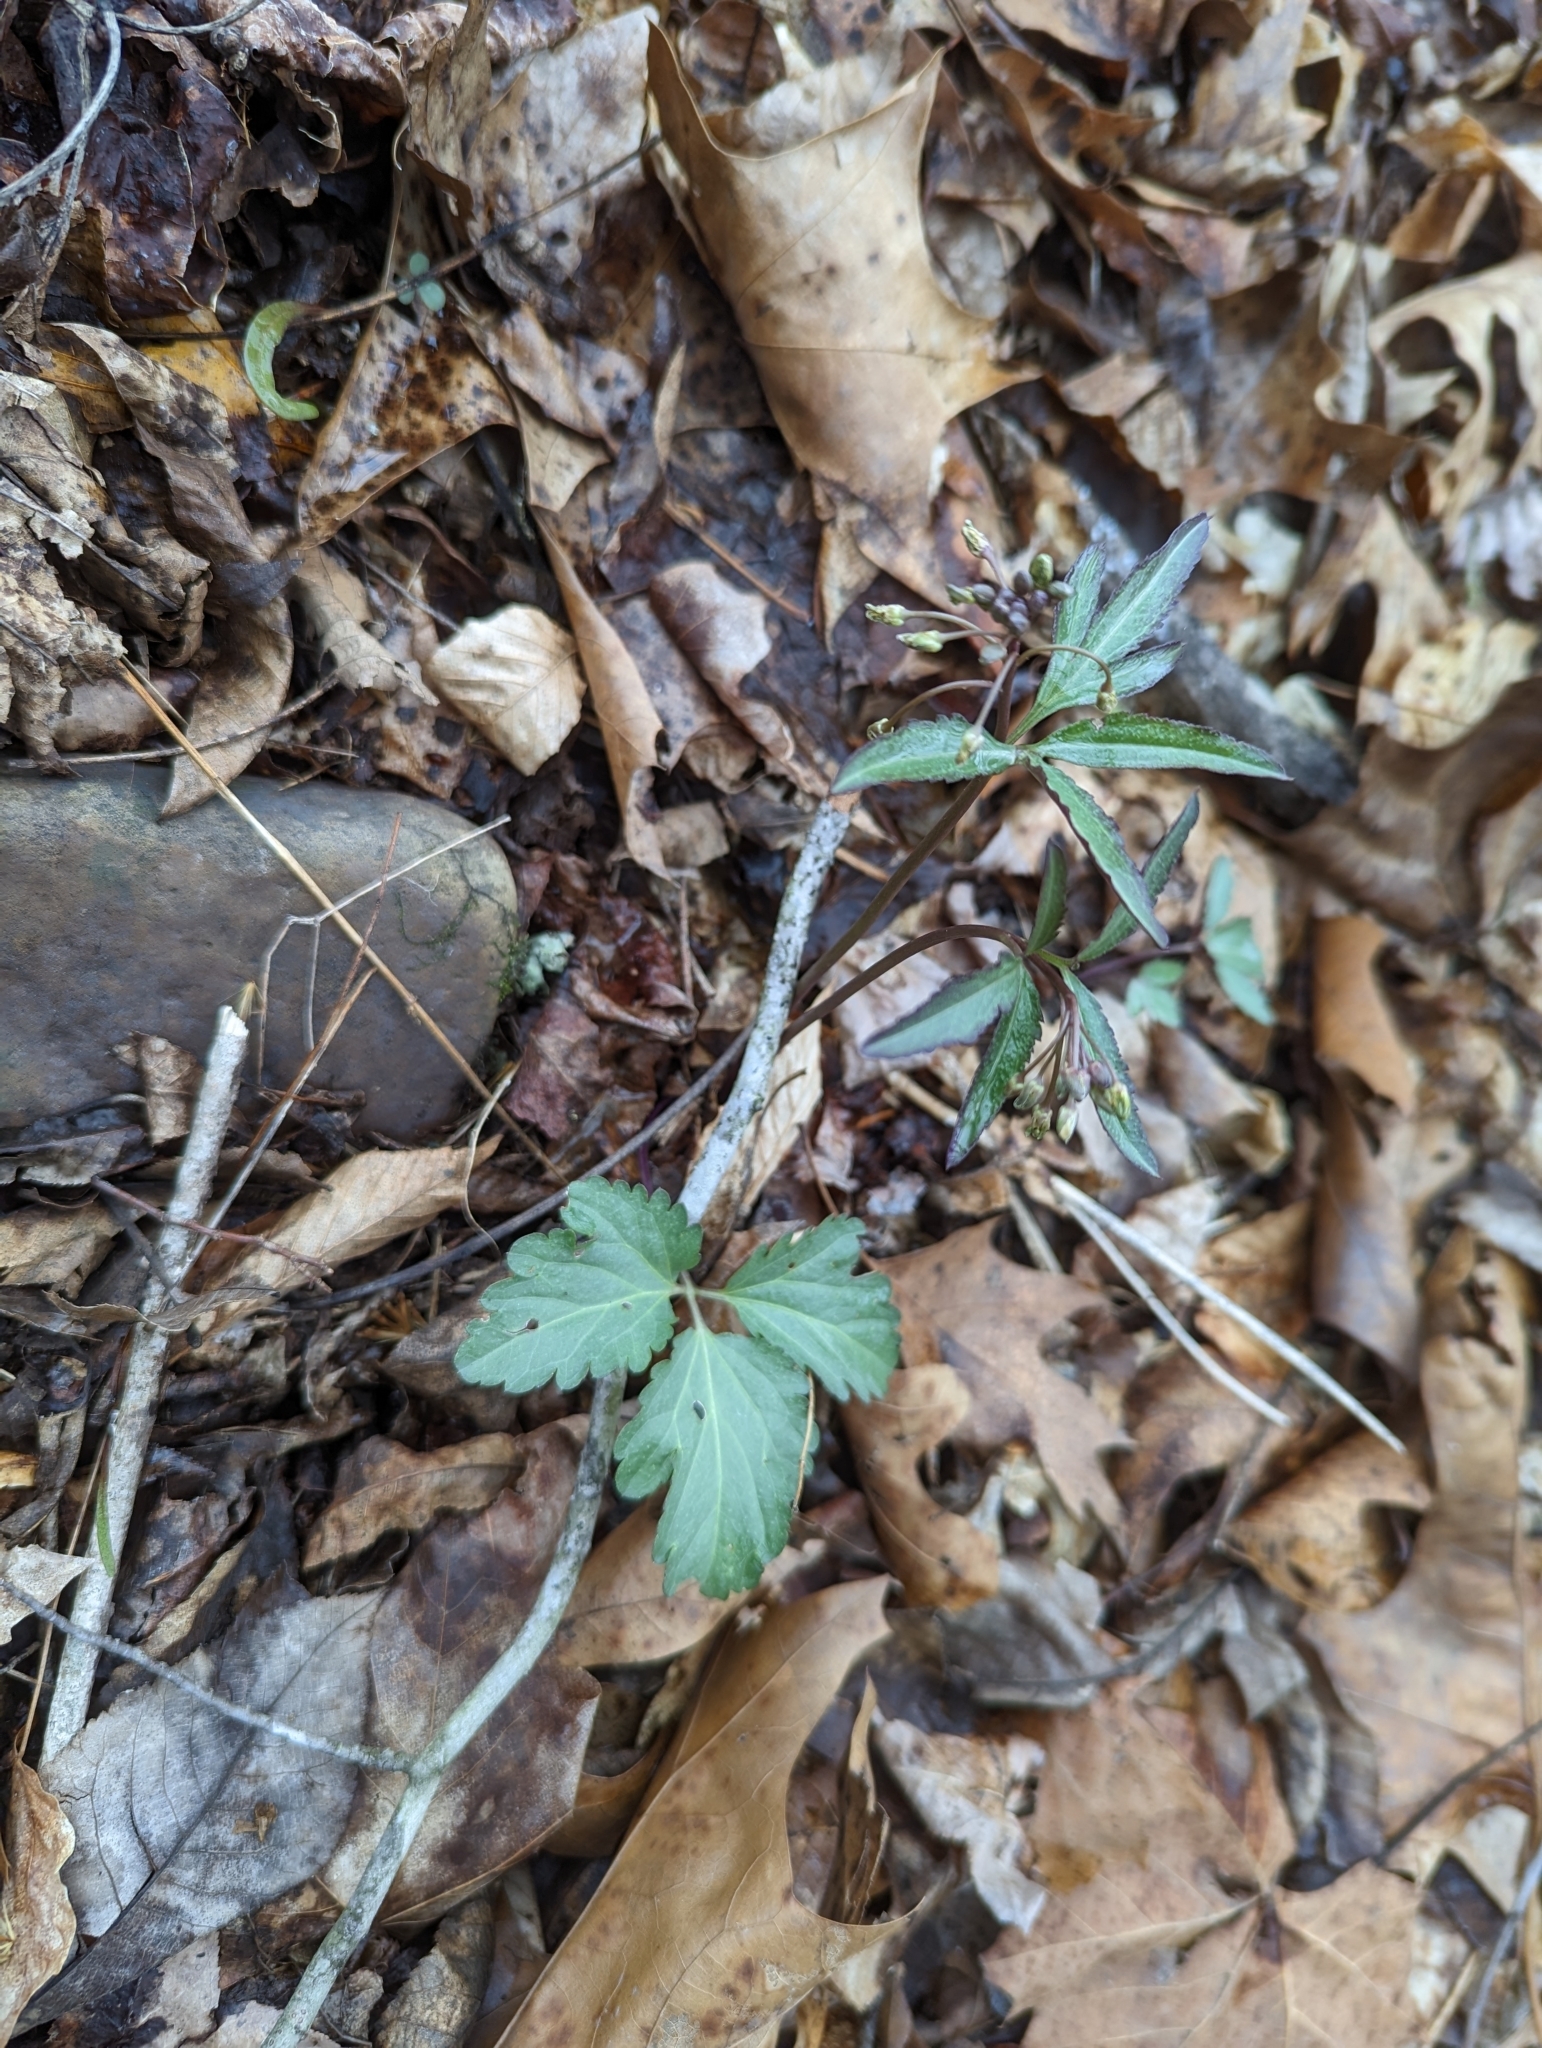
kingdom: Plantae
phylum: Tracheophyta
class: Magnoliopsida
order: Brassicales
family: Brassicaceae
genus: Cardamine
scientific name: Cardamine angustata
